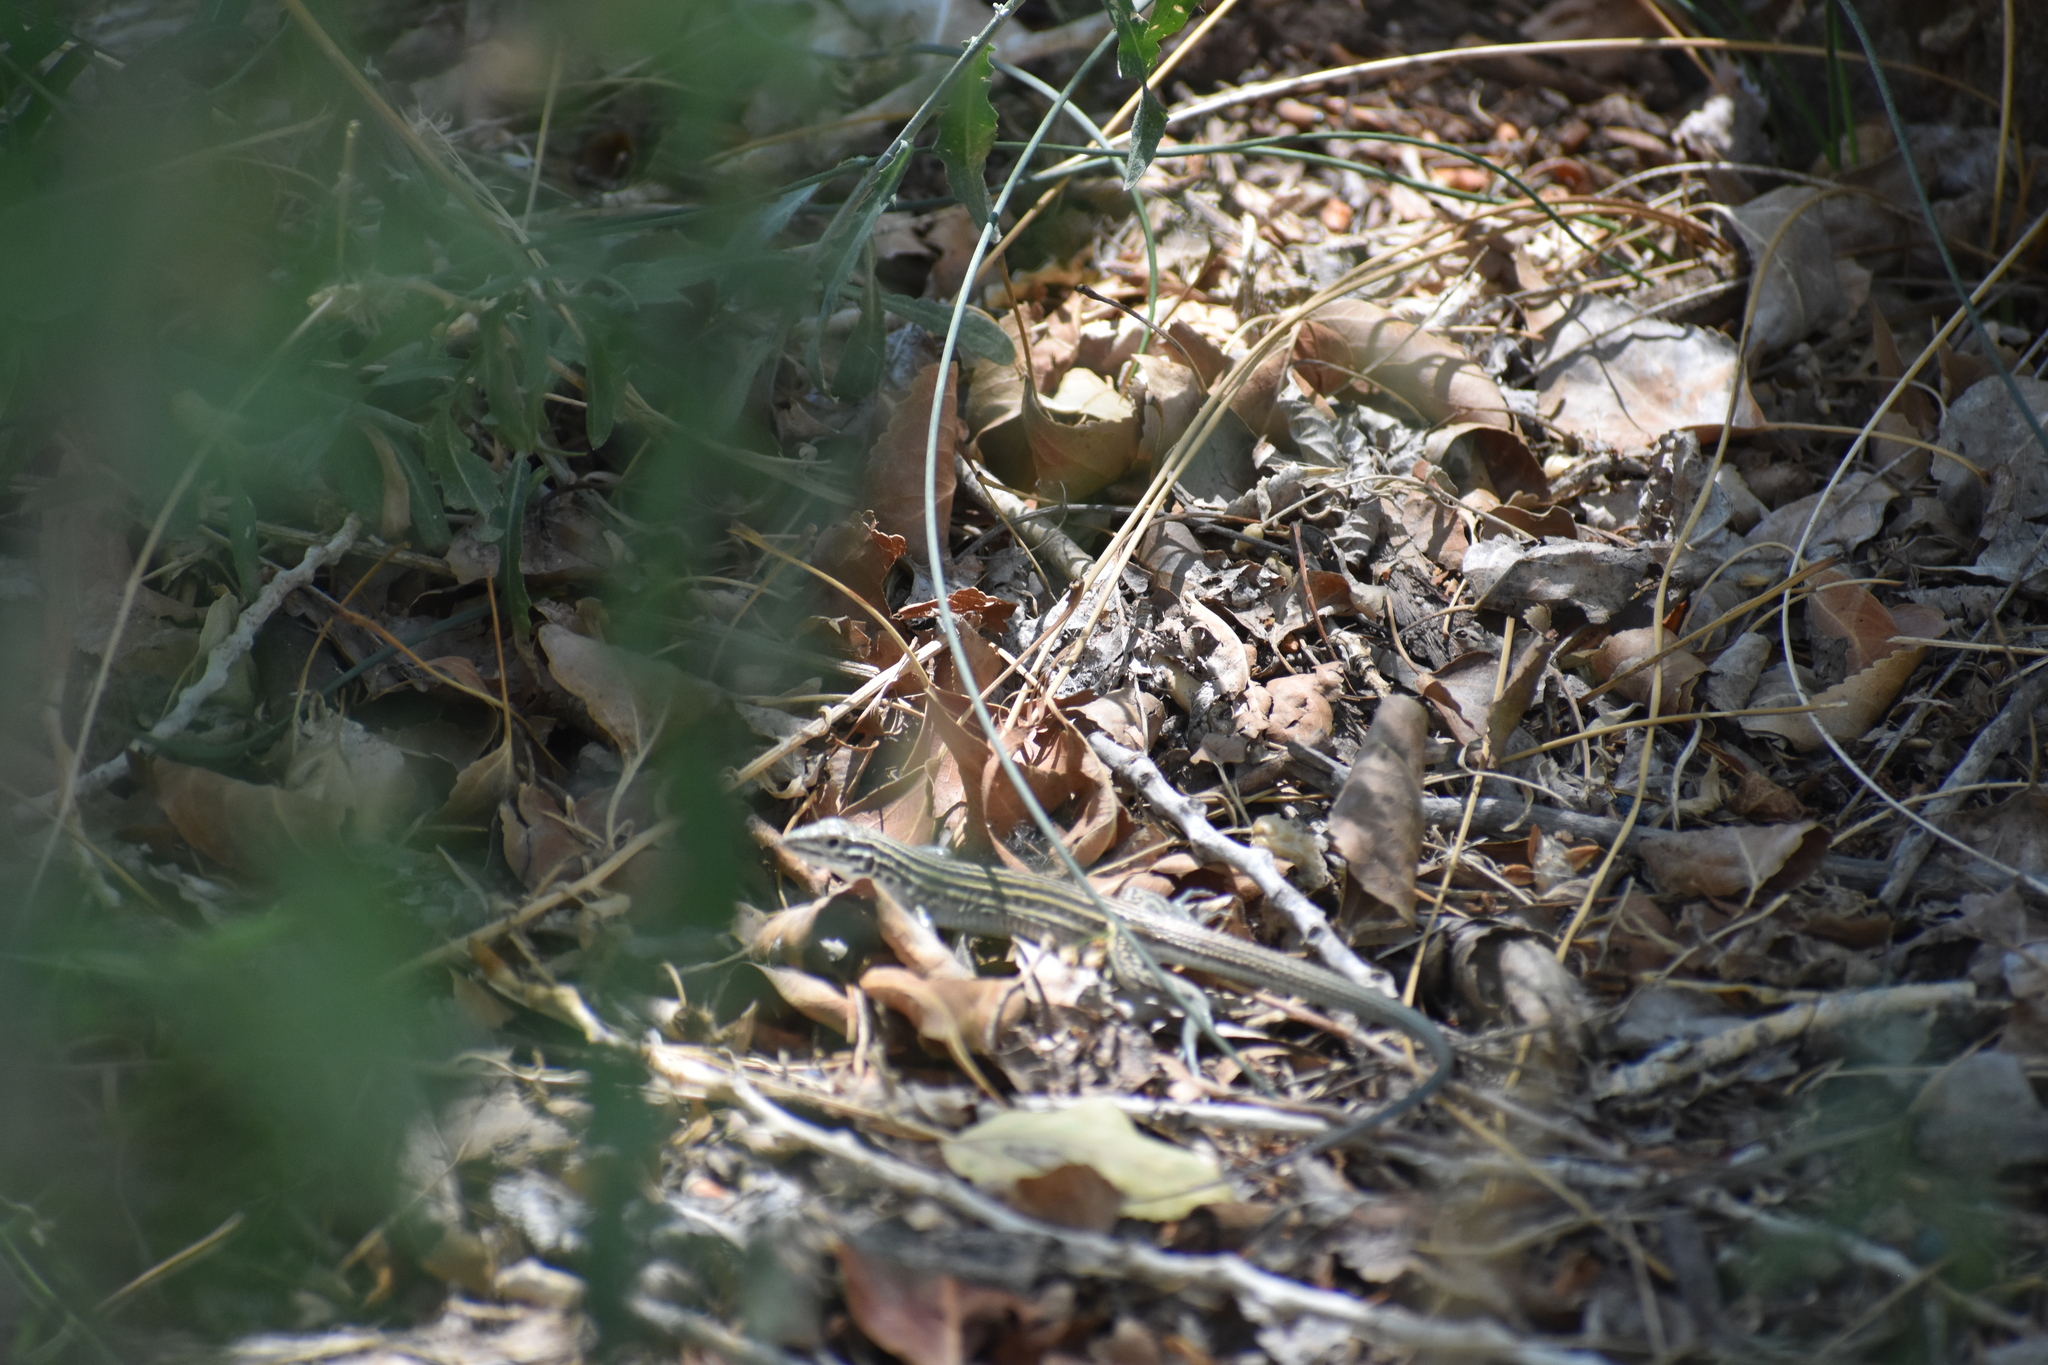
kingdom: Animalia
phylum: Chordata
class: Squamata
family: Teiidae
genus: Aspidoscelis
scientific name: Aspidoscelis velox
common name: Plateau striped whiptail
